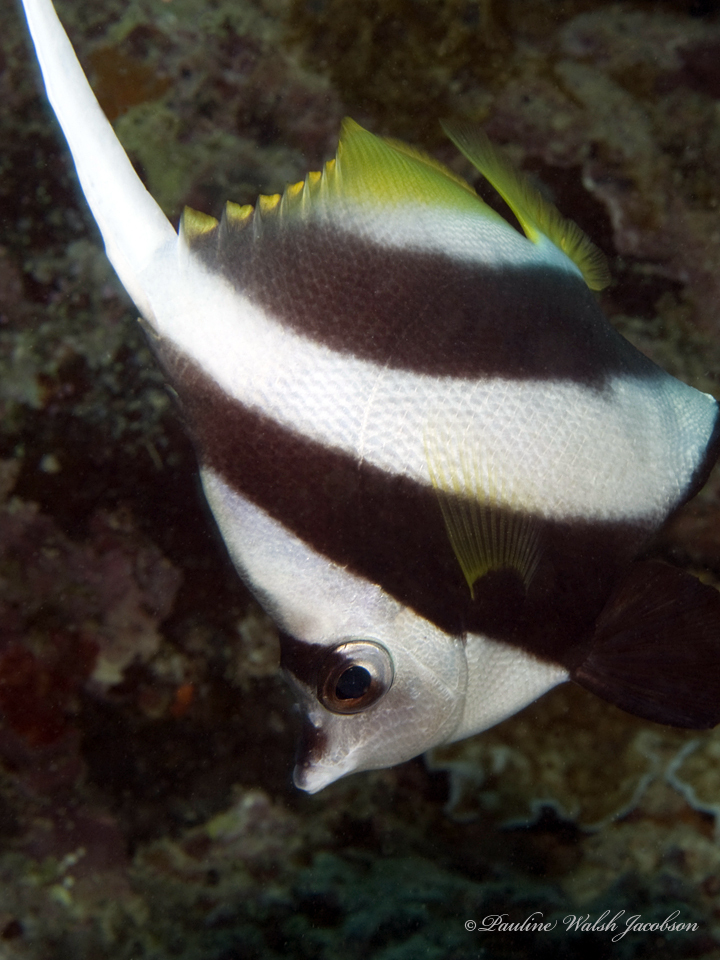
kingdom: Animalia
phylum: Chordata
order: Perciformes
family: Chaetodontidae
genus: Heniochus
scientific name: Heniochus acuminatus
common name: Pennant coralfish
